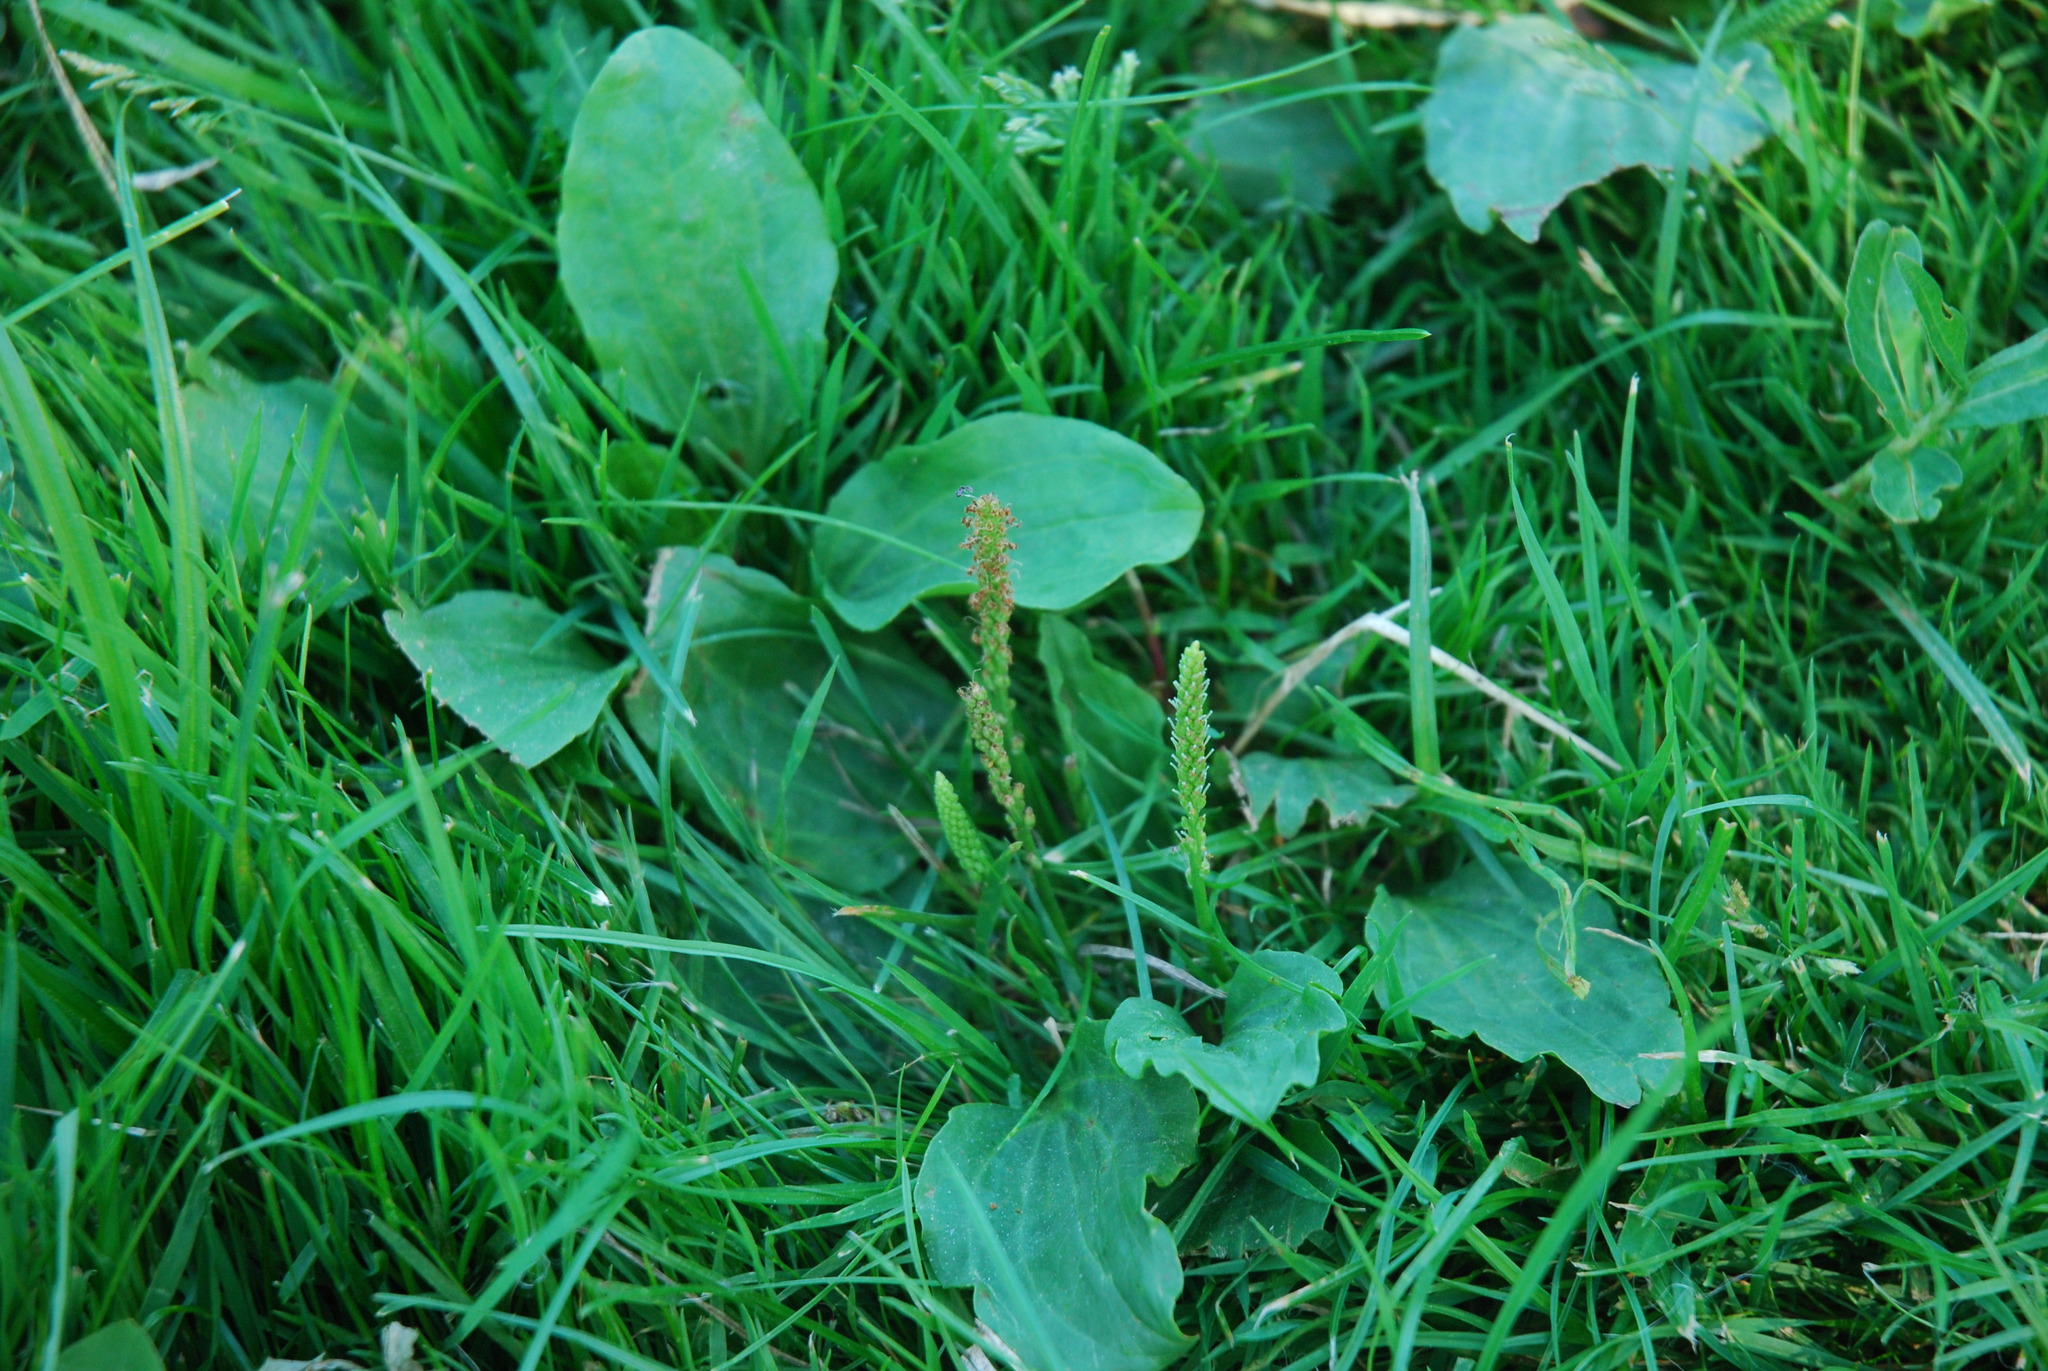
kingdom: Plantae
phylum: Tracheophyta
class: Magnoliopsida
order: Lamiales
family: Plantaginaceae
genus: Plantago
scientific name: Plantago major
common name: Common plantain
